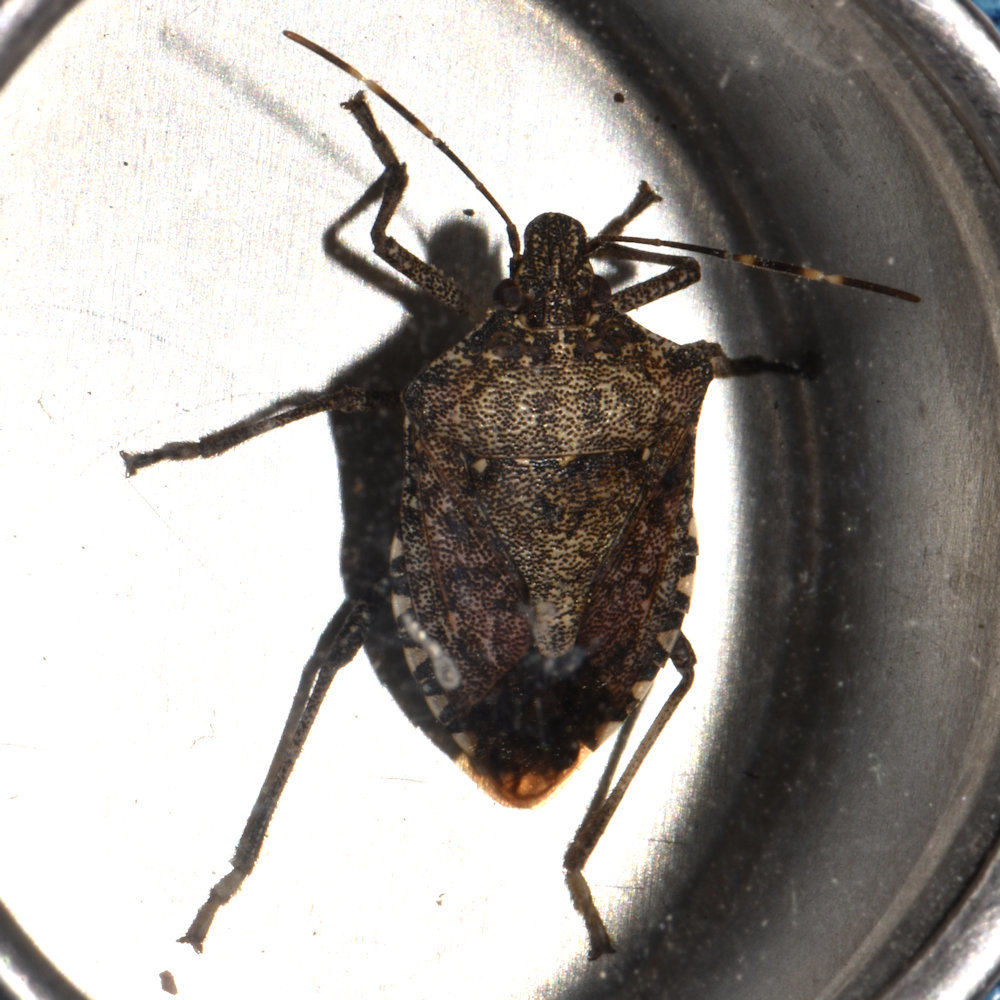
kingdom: Animalia
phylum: Arthropoda
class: Insecta
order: Hemiptera
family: Pentatomidae
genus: Halyomorpha
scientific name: Halyomorpha halys
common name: Brown marmorated stink bug
